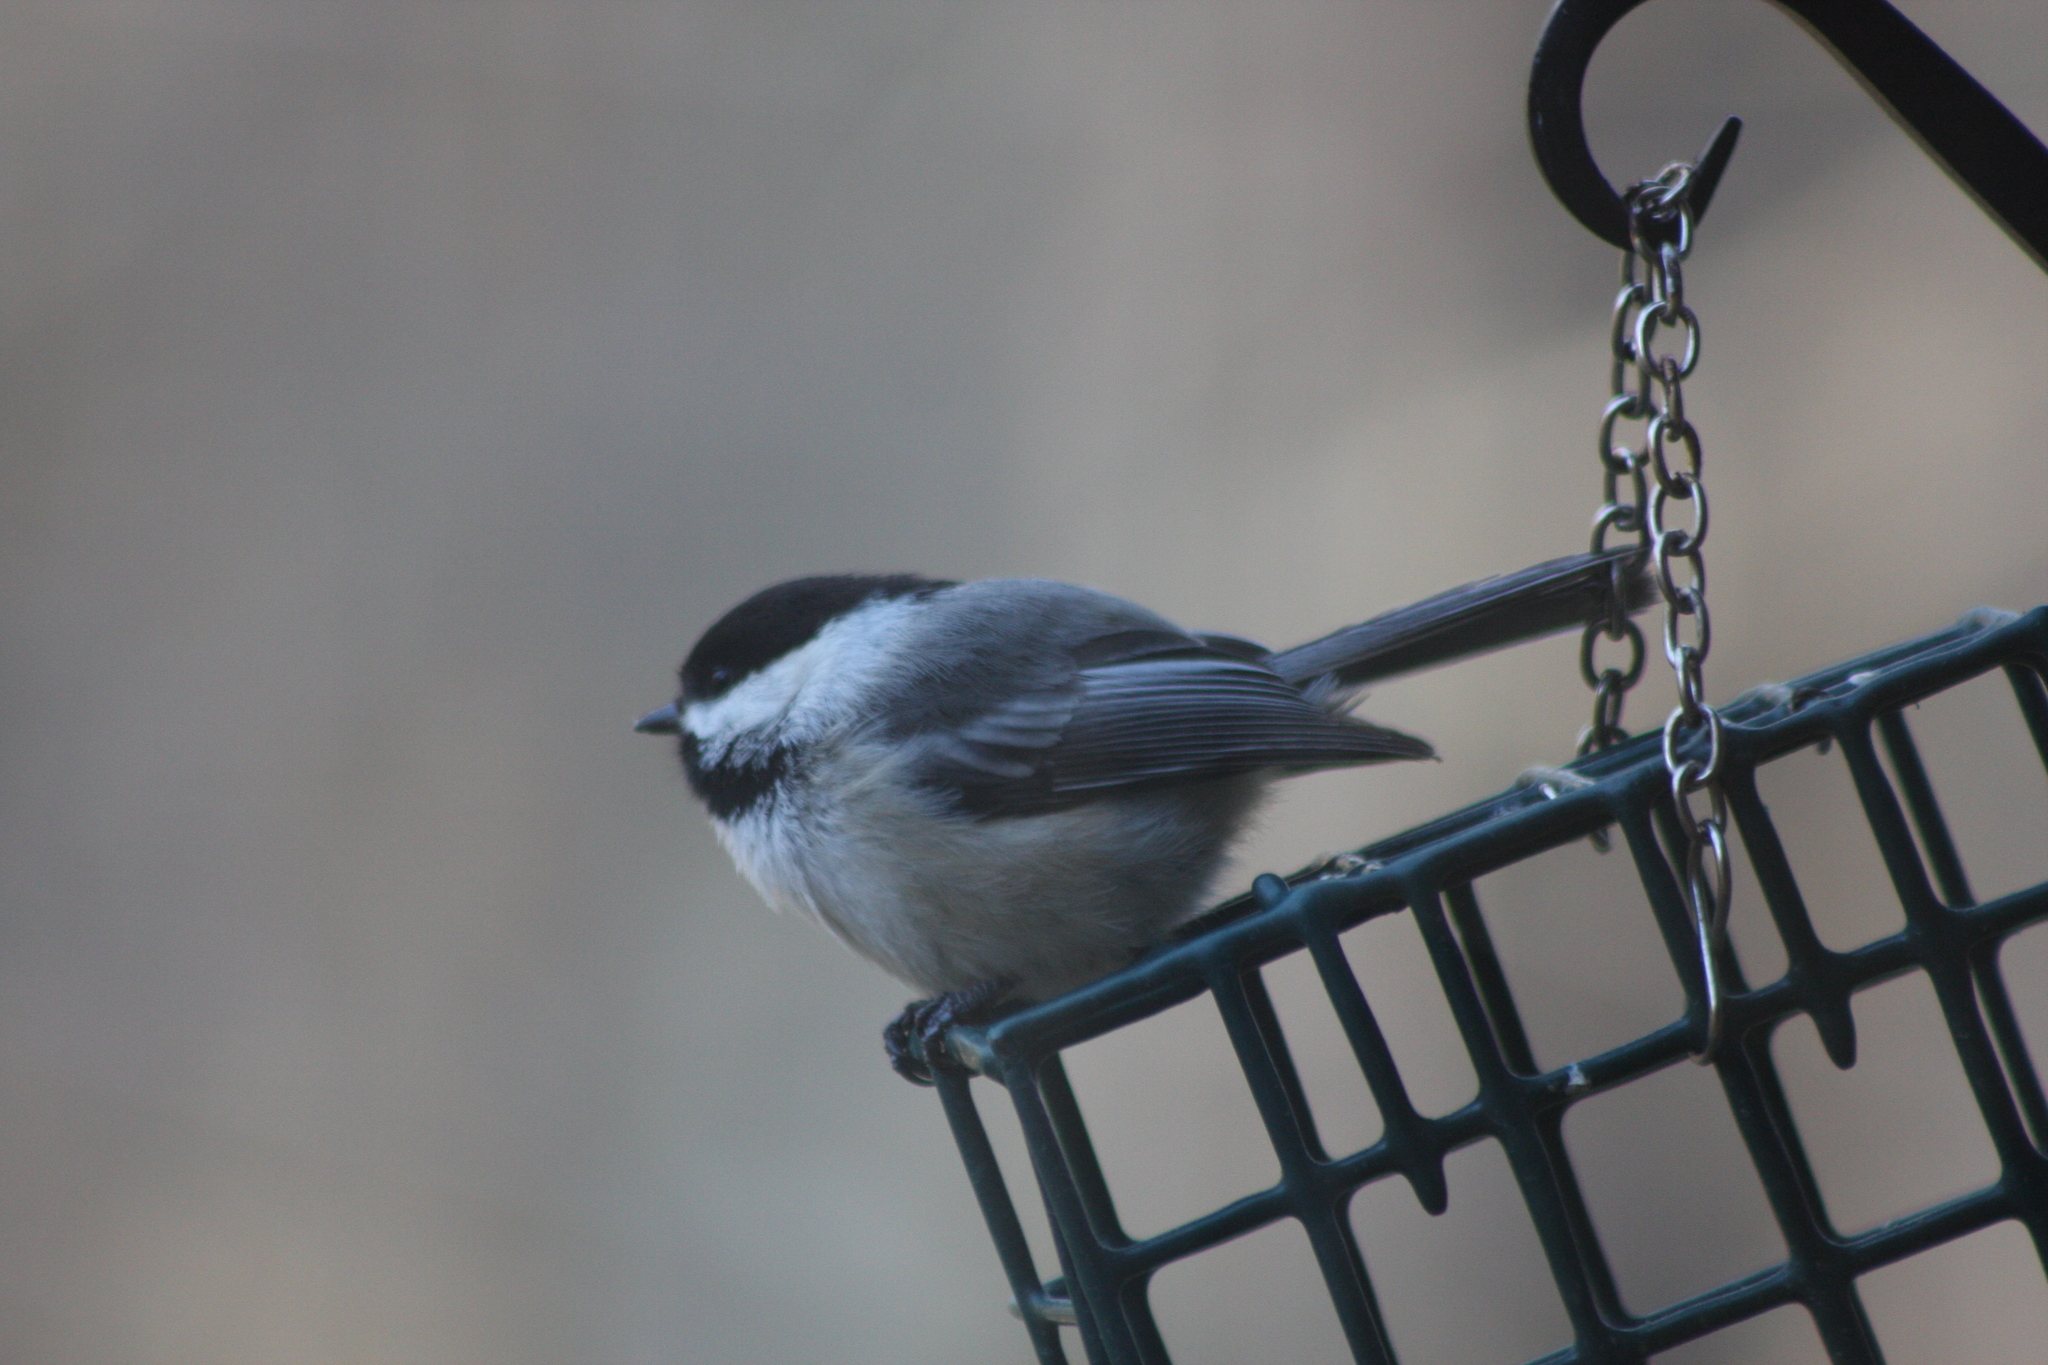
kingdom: Animalia
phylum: Chordata
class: Aves
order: Passeriformes
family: Paridae
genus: Poecile
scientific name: Poecile atricapillus
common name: Black-capped chickadee
